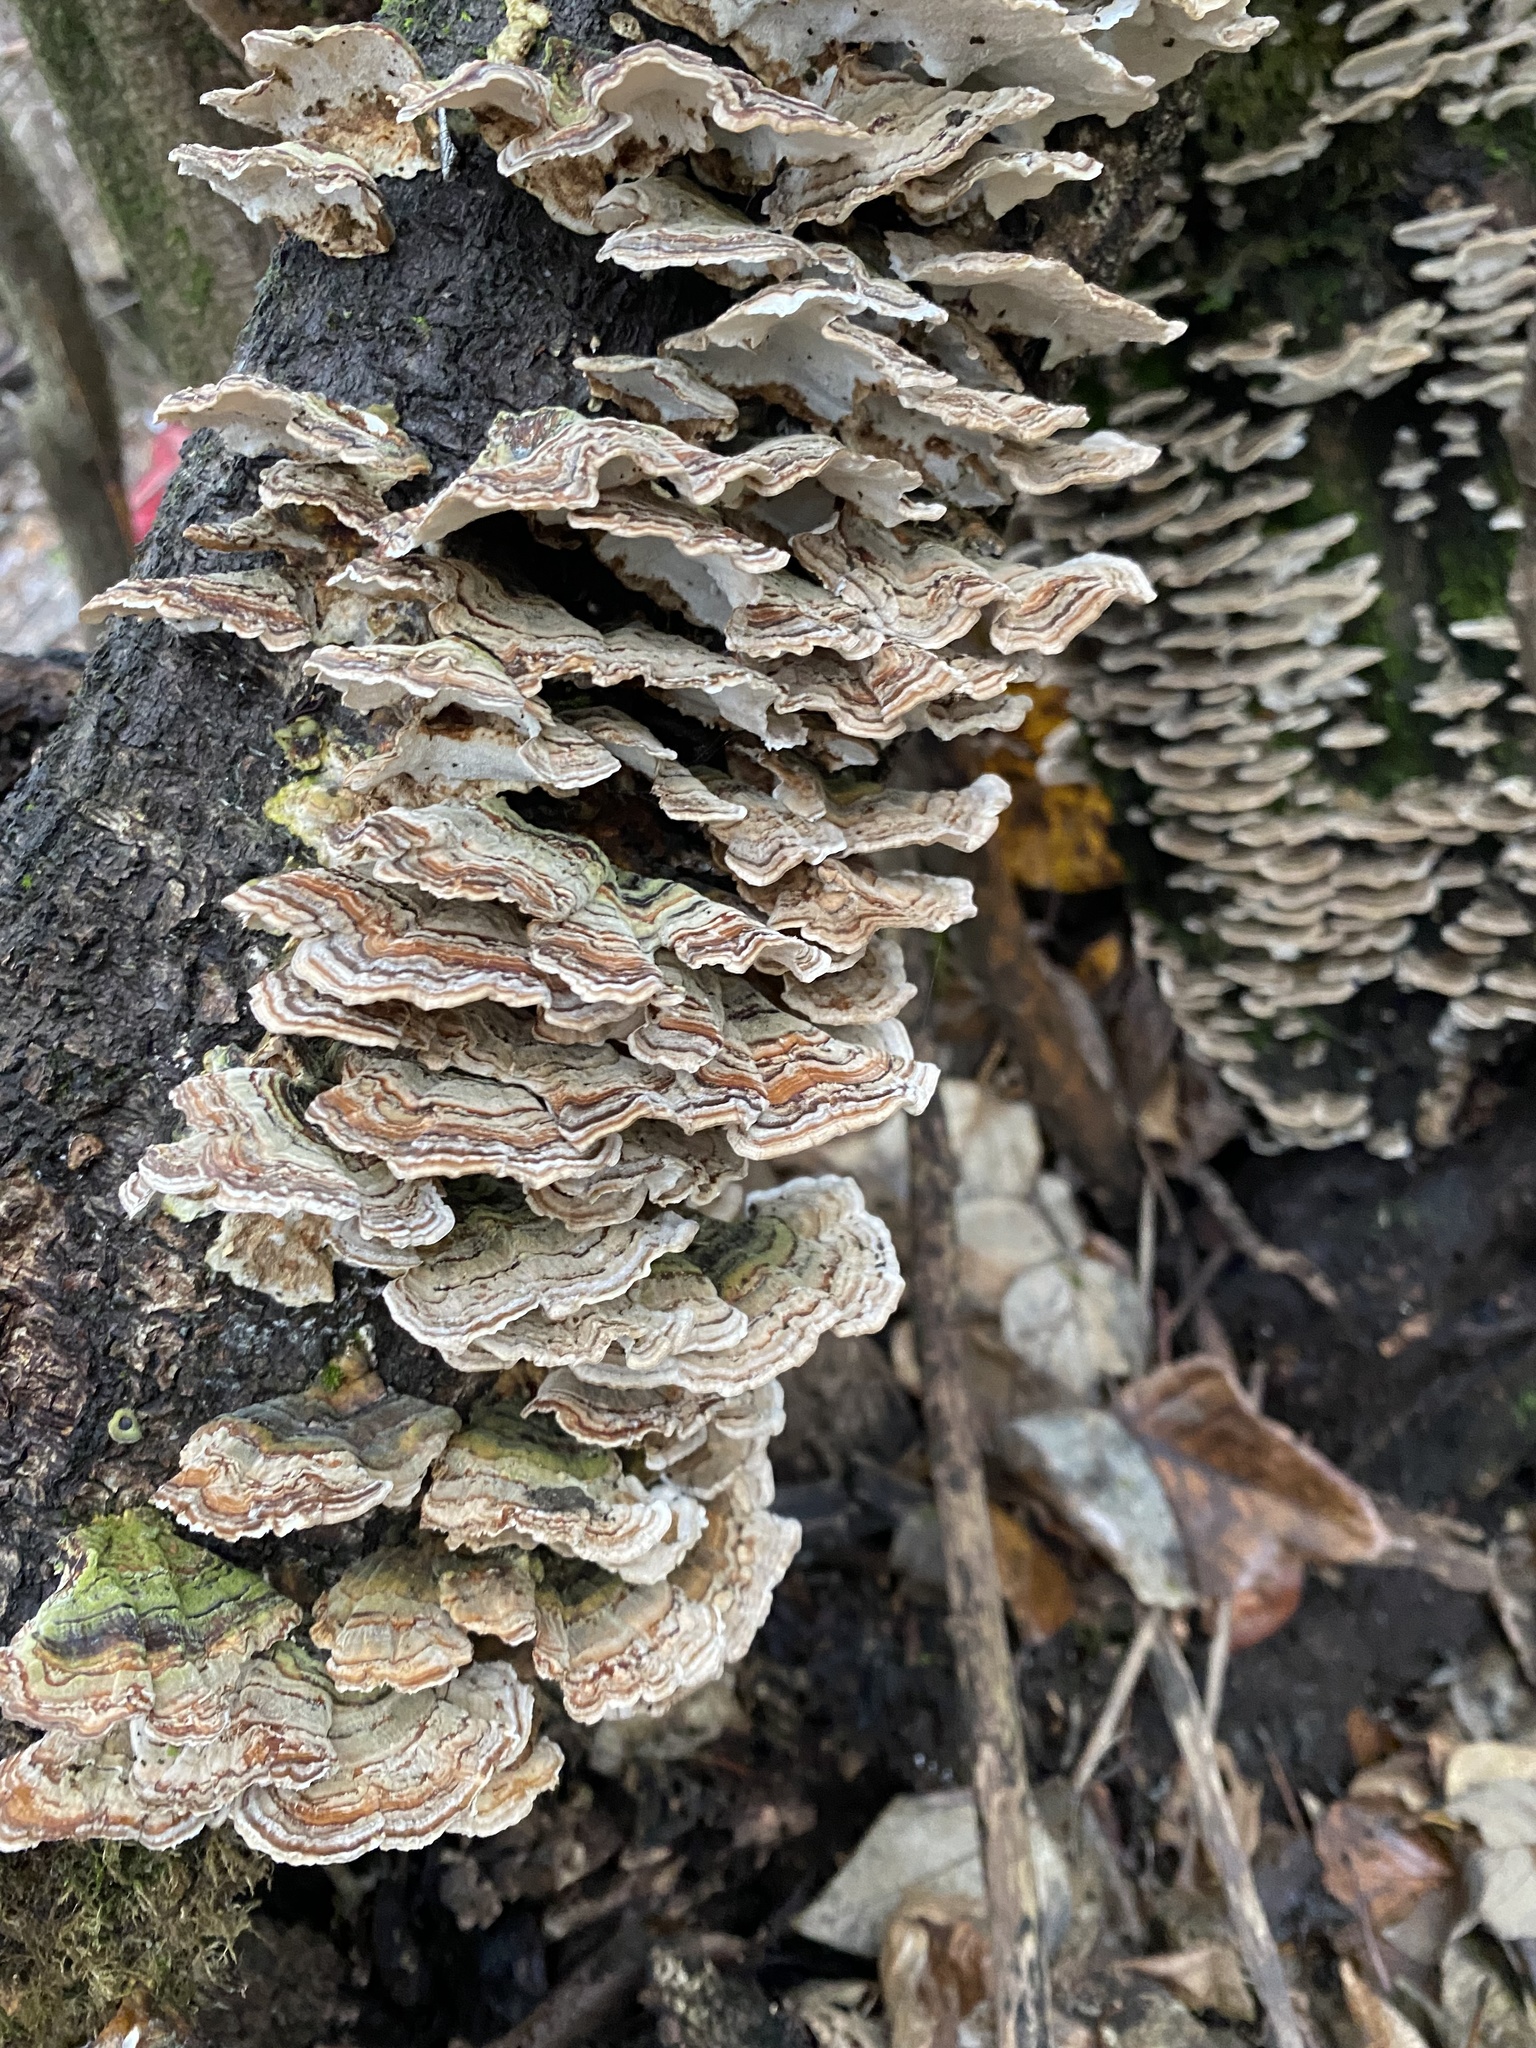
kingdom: Fungi
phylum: Basidiomycota
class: Agaricomycetes
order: Polyporales
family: Polyporaceae
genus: Trametes
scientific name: Trametes versicolor
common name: Turkeytail
